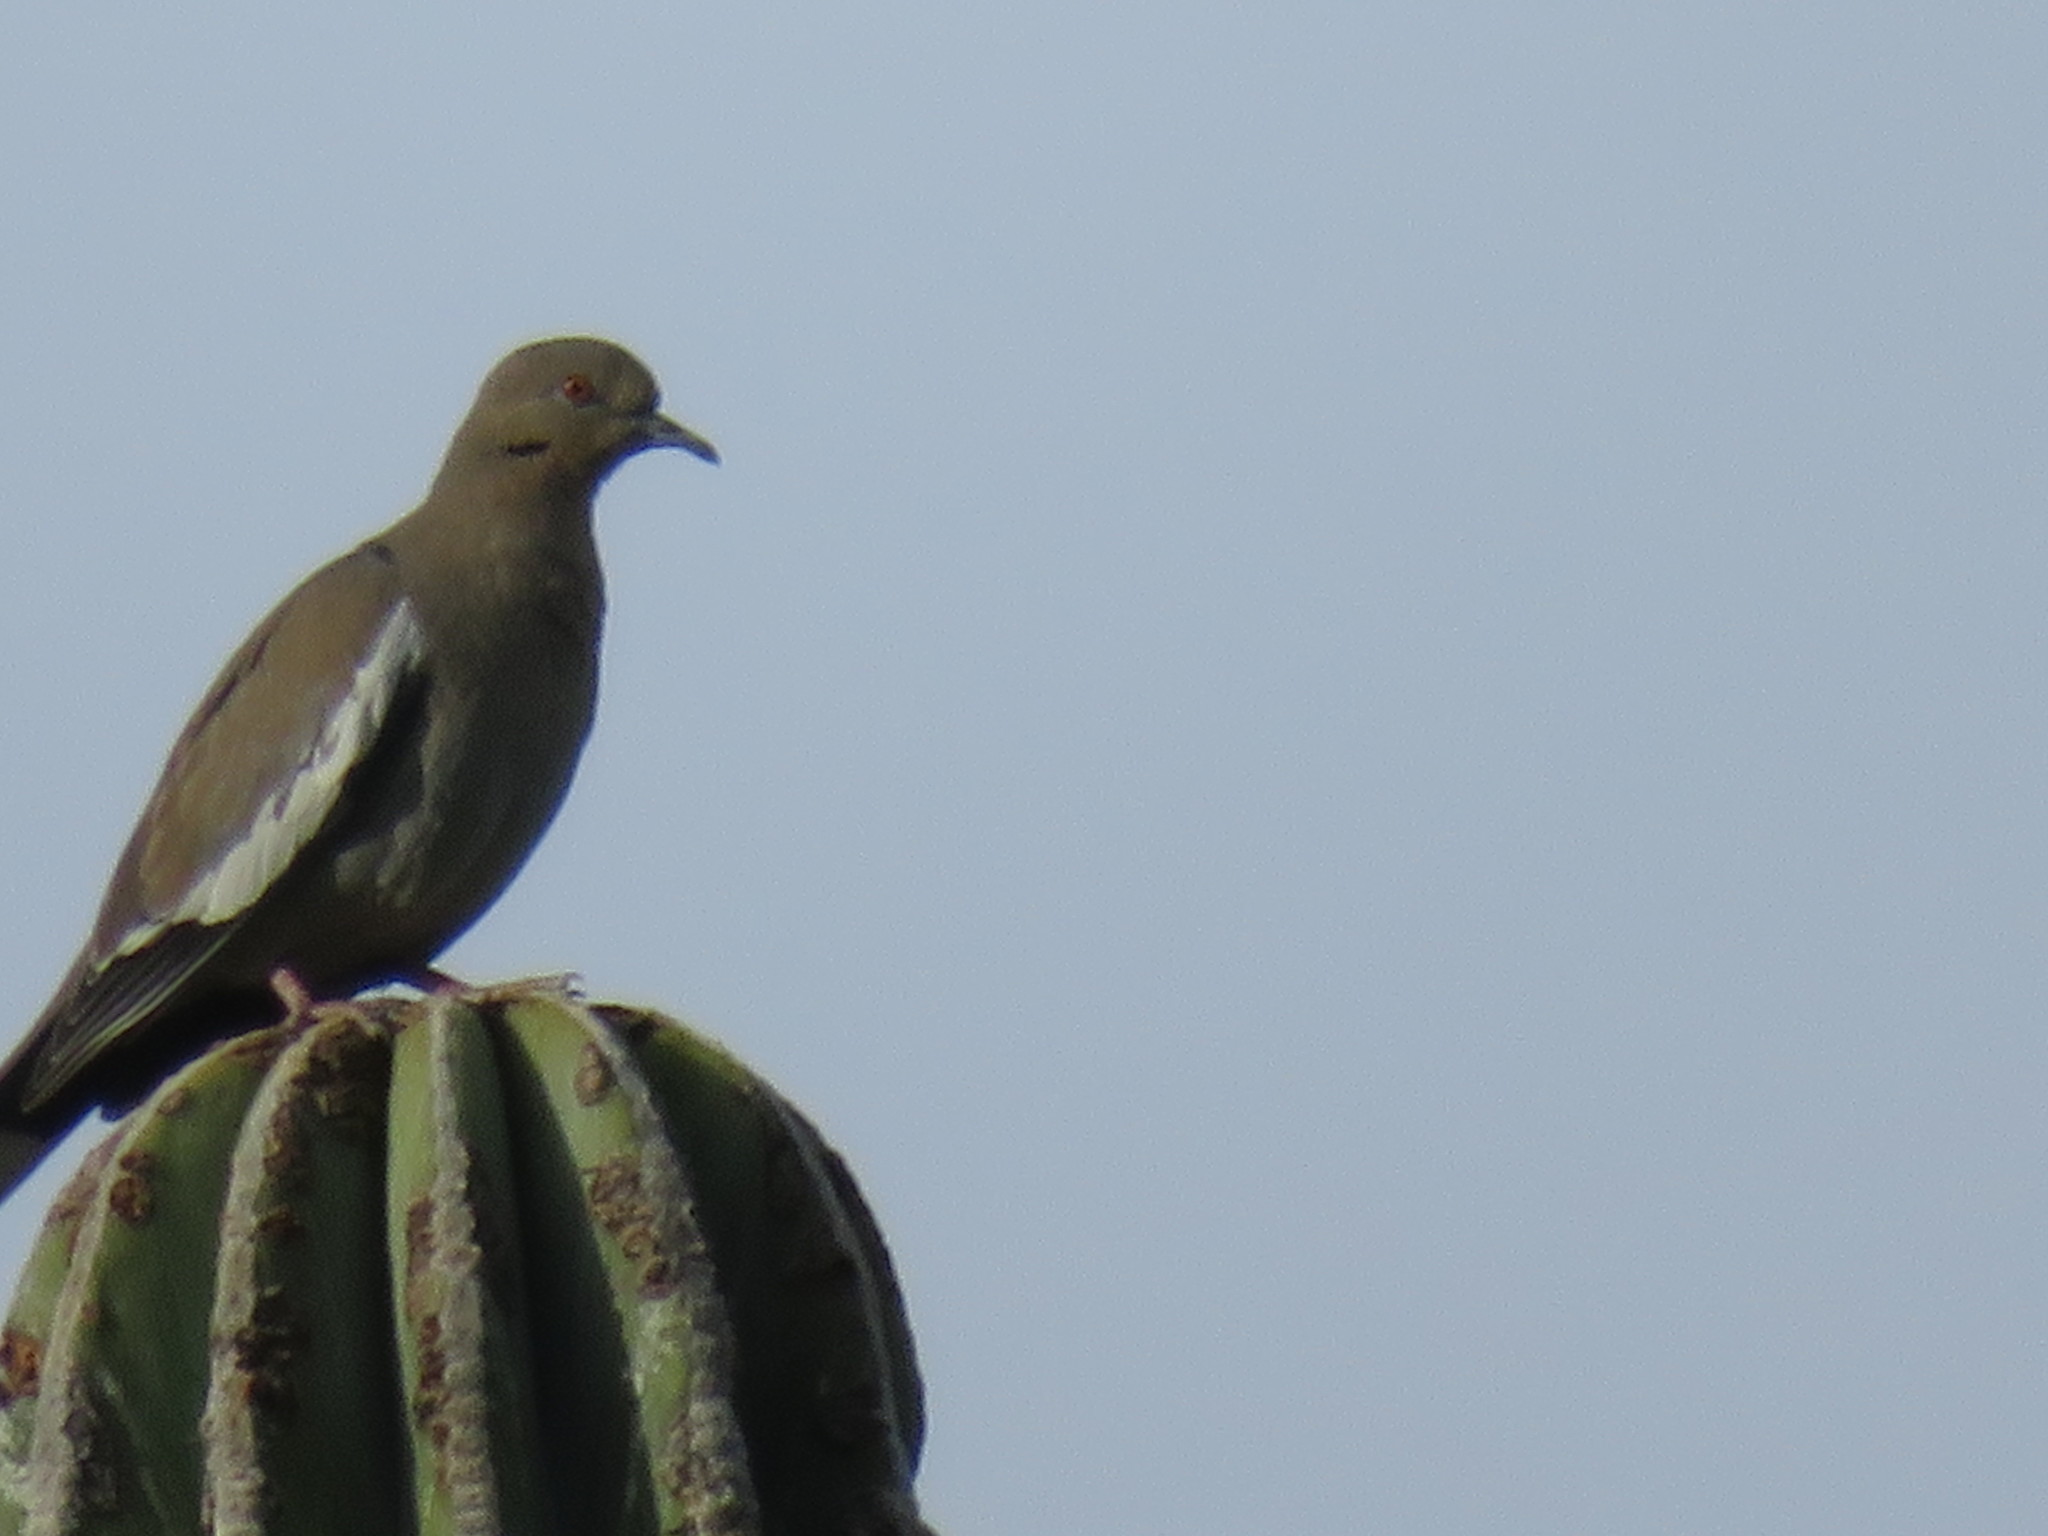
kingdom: Animalia
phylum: Chordata
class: Aves
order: Columbiformes
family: Columbidae
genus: Zenaida
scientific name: Zenaida asiatica
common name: White-winged dove
